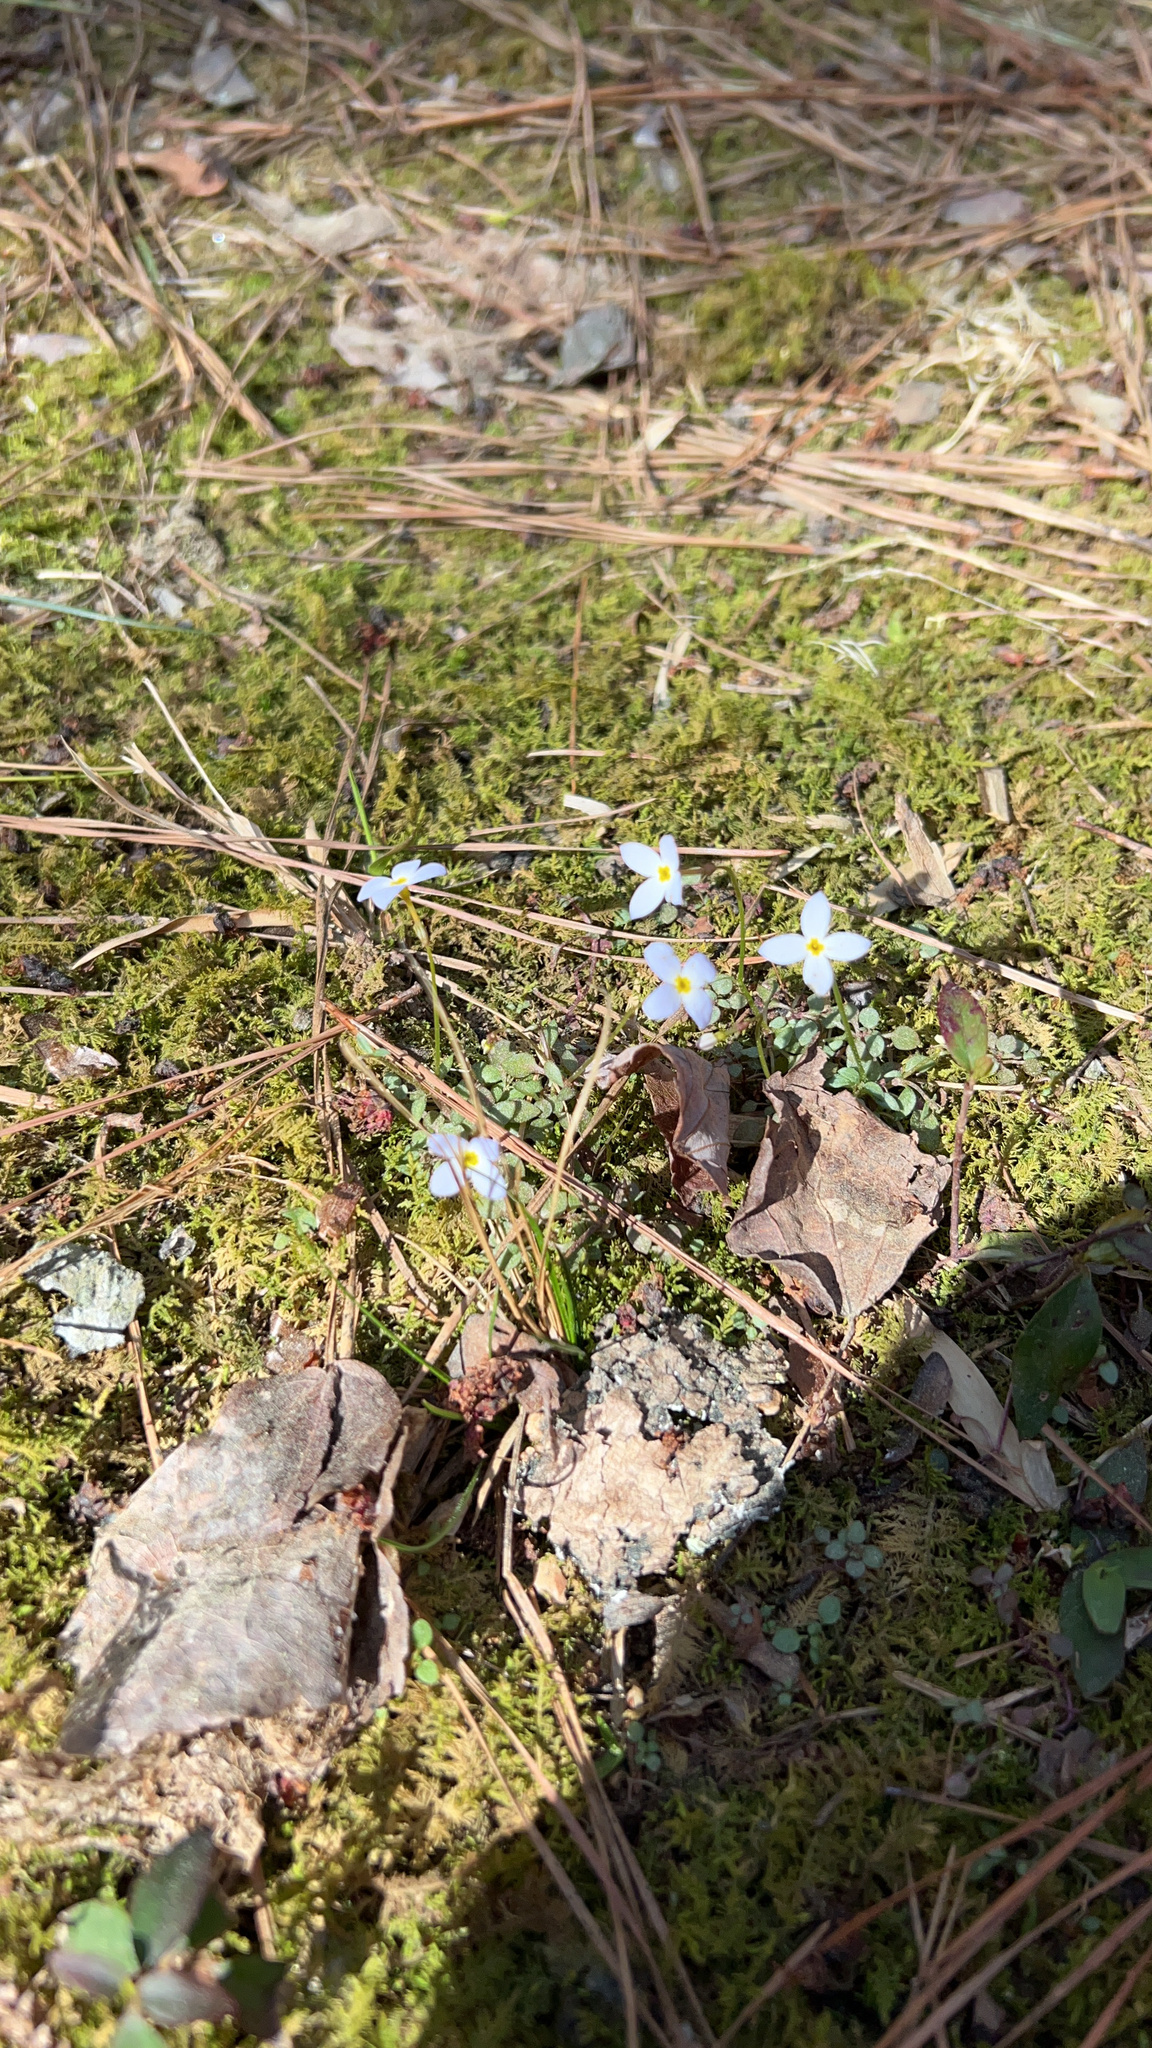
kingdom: Plantae
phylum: Tracheophyta
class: Magnoliopsida
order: Gentianales
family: Rubiaceae
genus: Houstonia
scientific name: Houstonia caerulea
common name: Bluets
